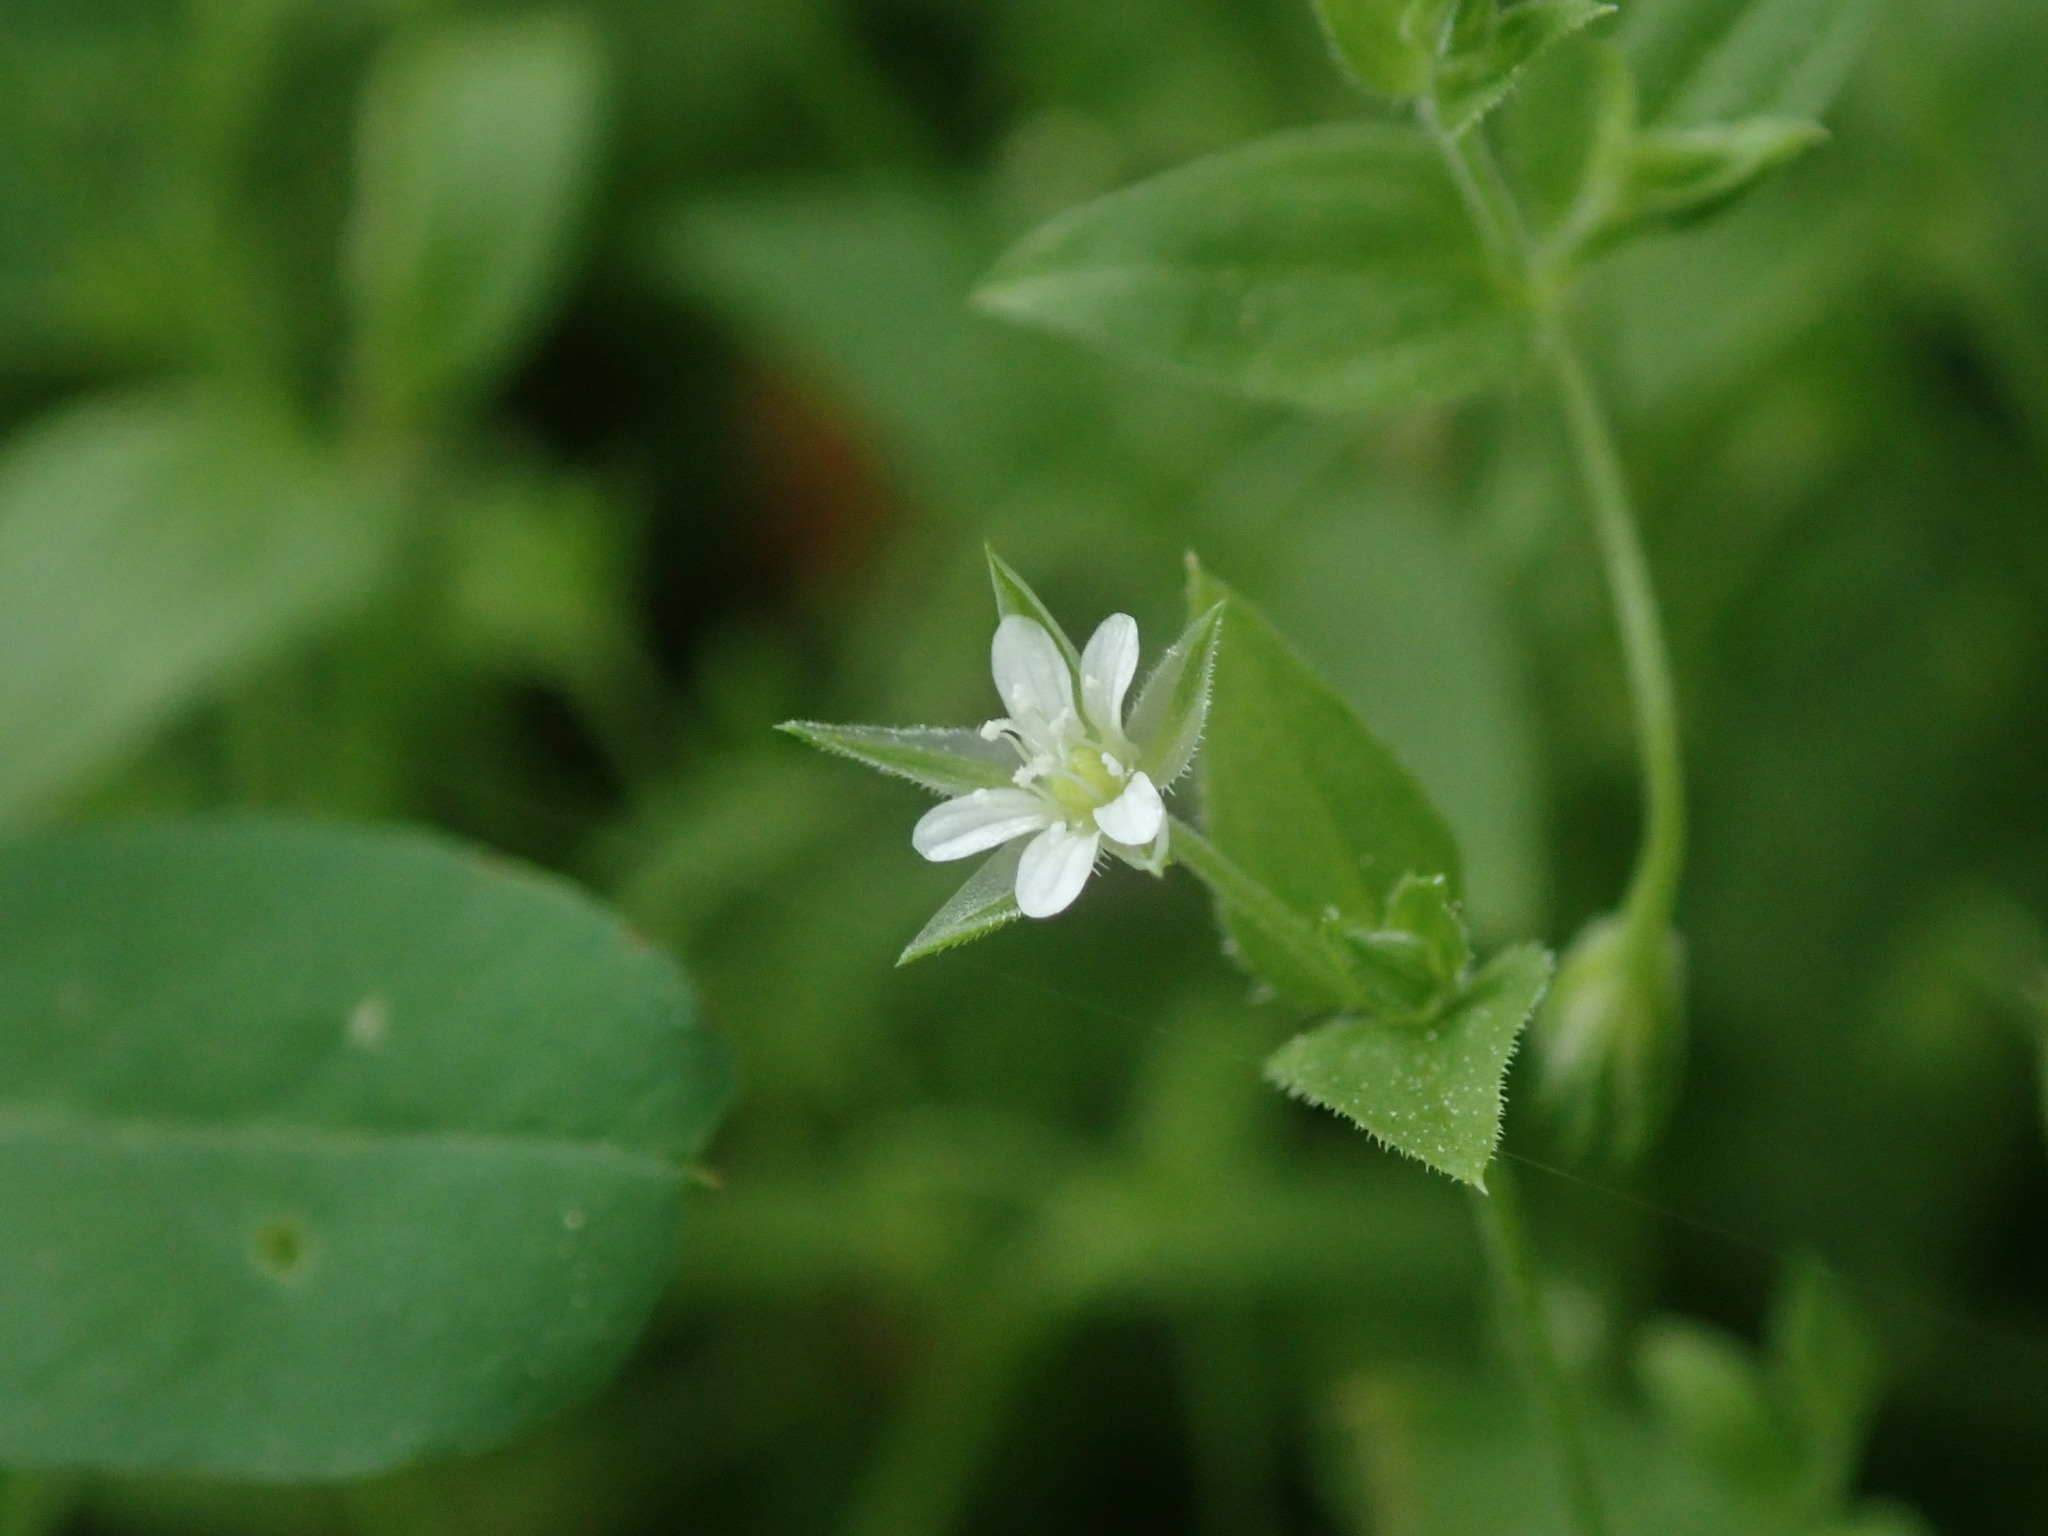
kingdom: Plantae
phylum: Tracheophyta
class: Magnoliopsida
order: Caryophyllales
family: Caryophyllaceae
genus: Moehringia
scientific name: Moehringia trinervia
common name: Three-nerved sandwort
